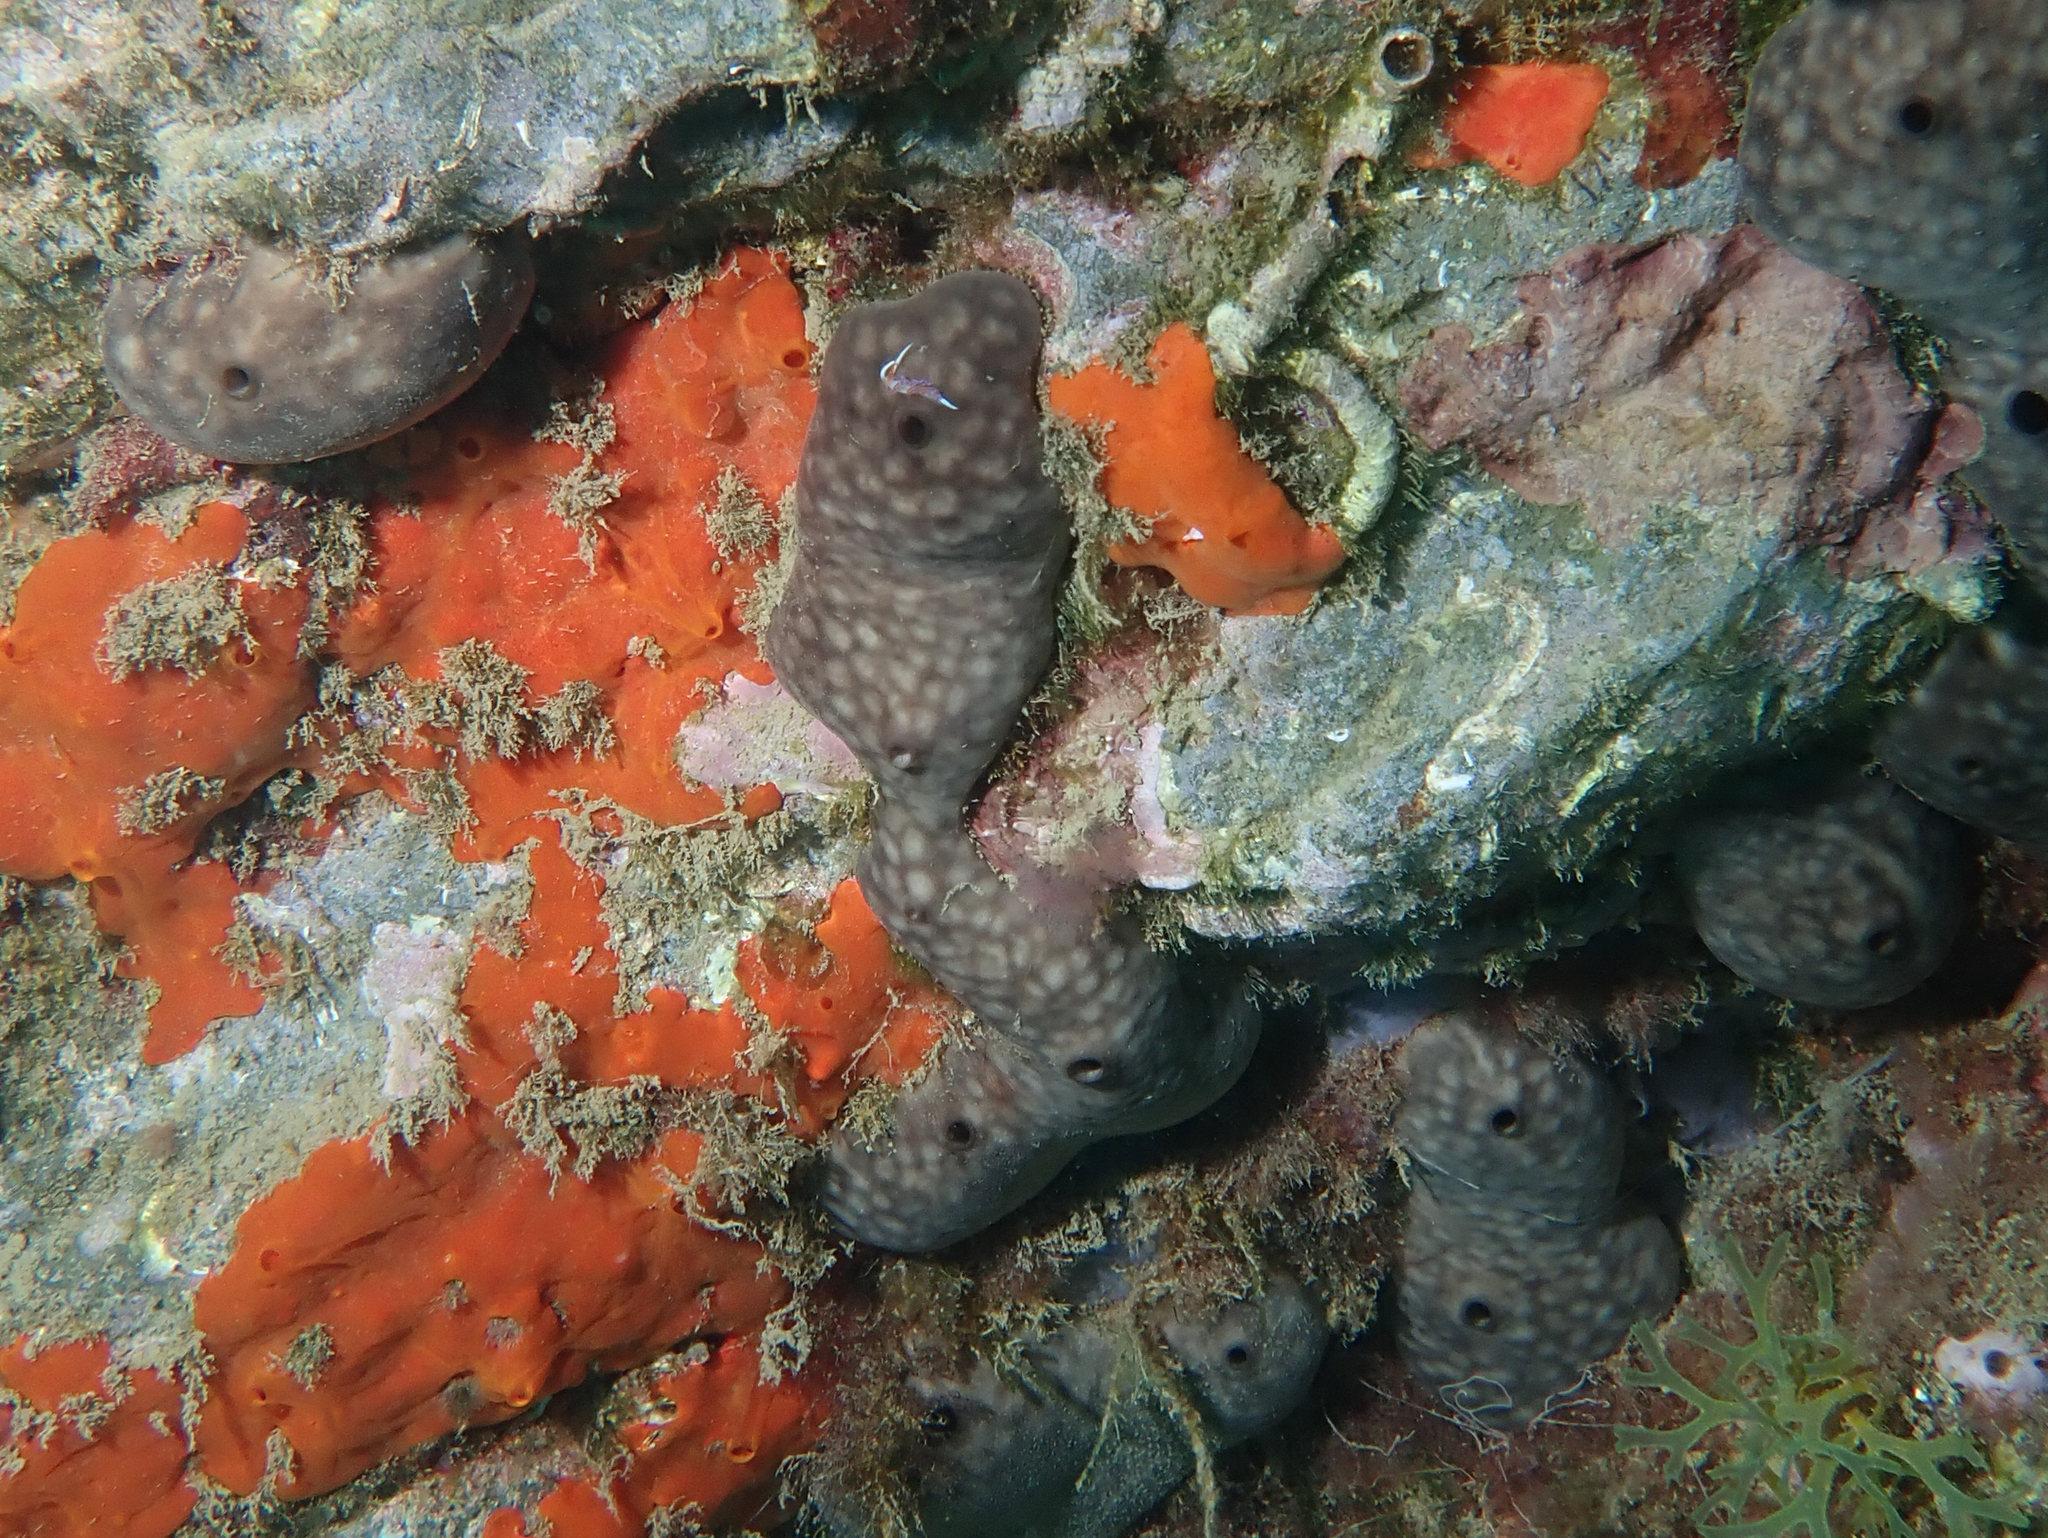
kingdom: Animalia
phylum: Porifera
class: Demospongiae
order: Chondrosiida
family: Chondrosiidae
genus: Chondrosia
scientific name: Chondrosia reniformis
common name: Chicken liver sponge
